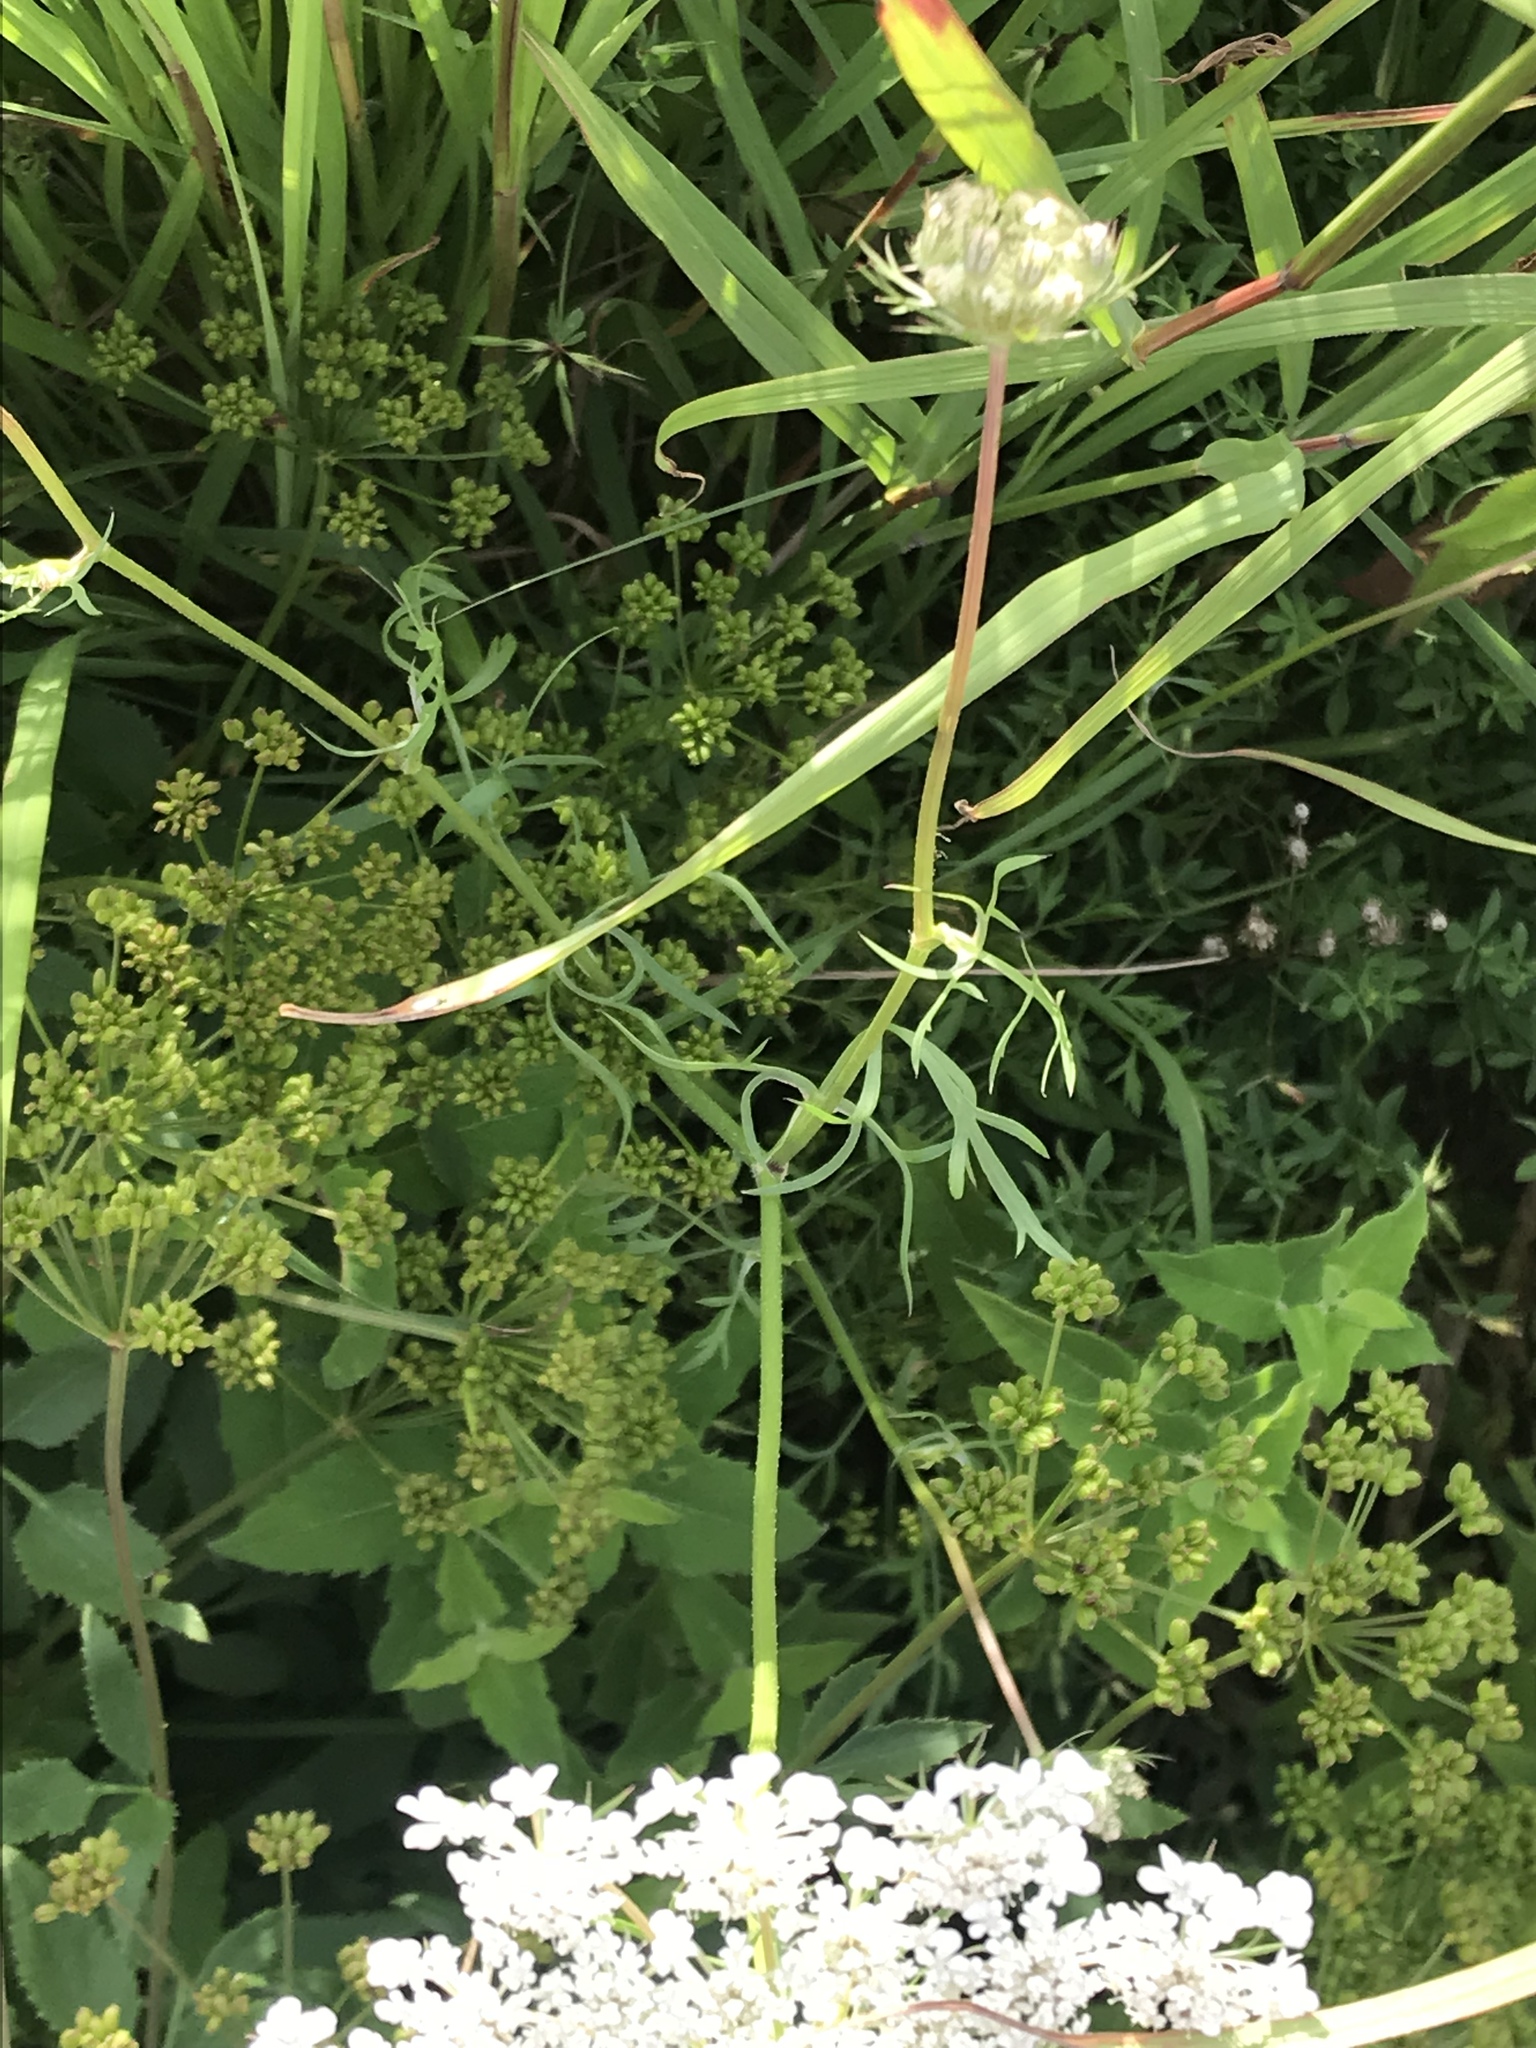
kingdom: Plantae
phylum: Tracheophyta
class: Magnoliopsida
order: Apiales
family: Apiaceae
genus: Daucus
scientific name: Daucus carota
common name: Wild carrot
